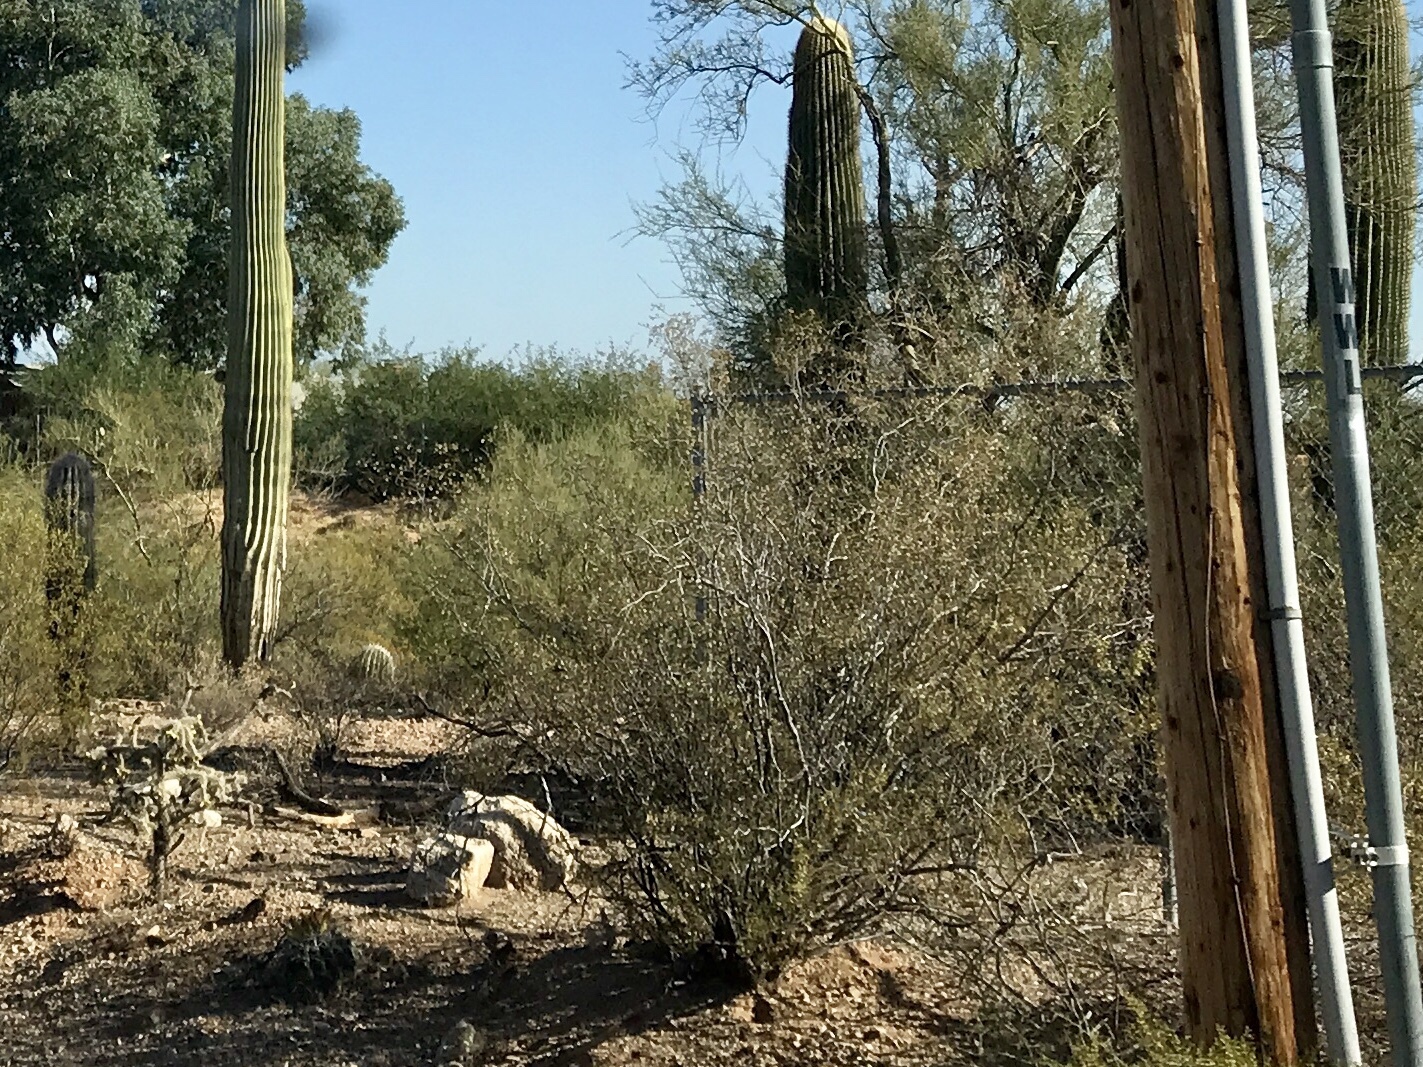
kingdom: Plantae
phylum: Tracheophyta
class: Magnoliopsida
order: Zygophyllales
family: Zygophyllaceae
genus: Larrea
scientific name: Larrea tridentata
